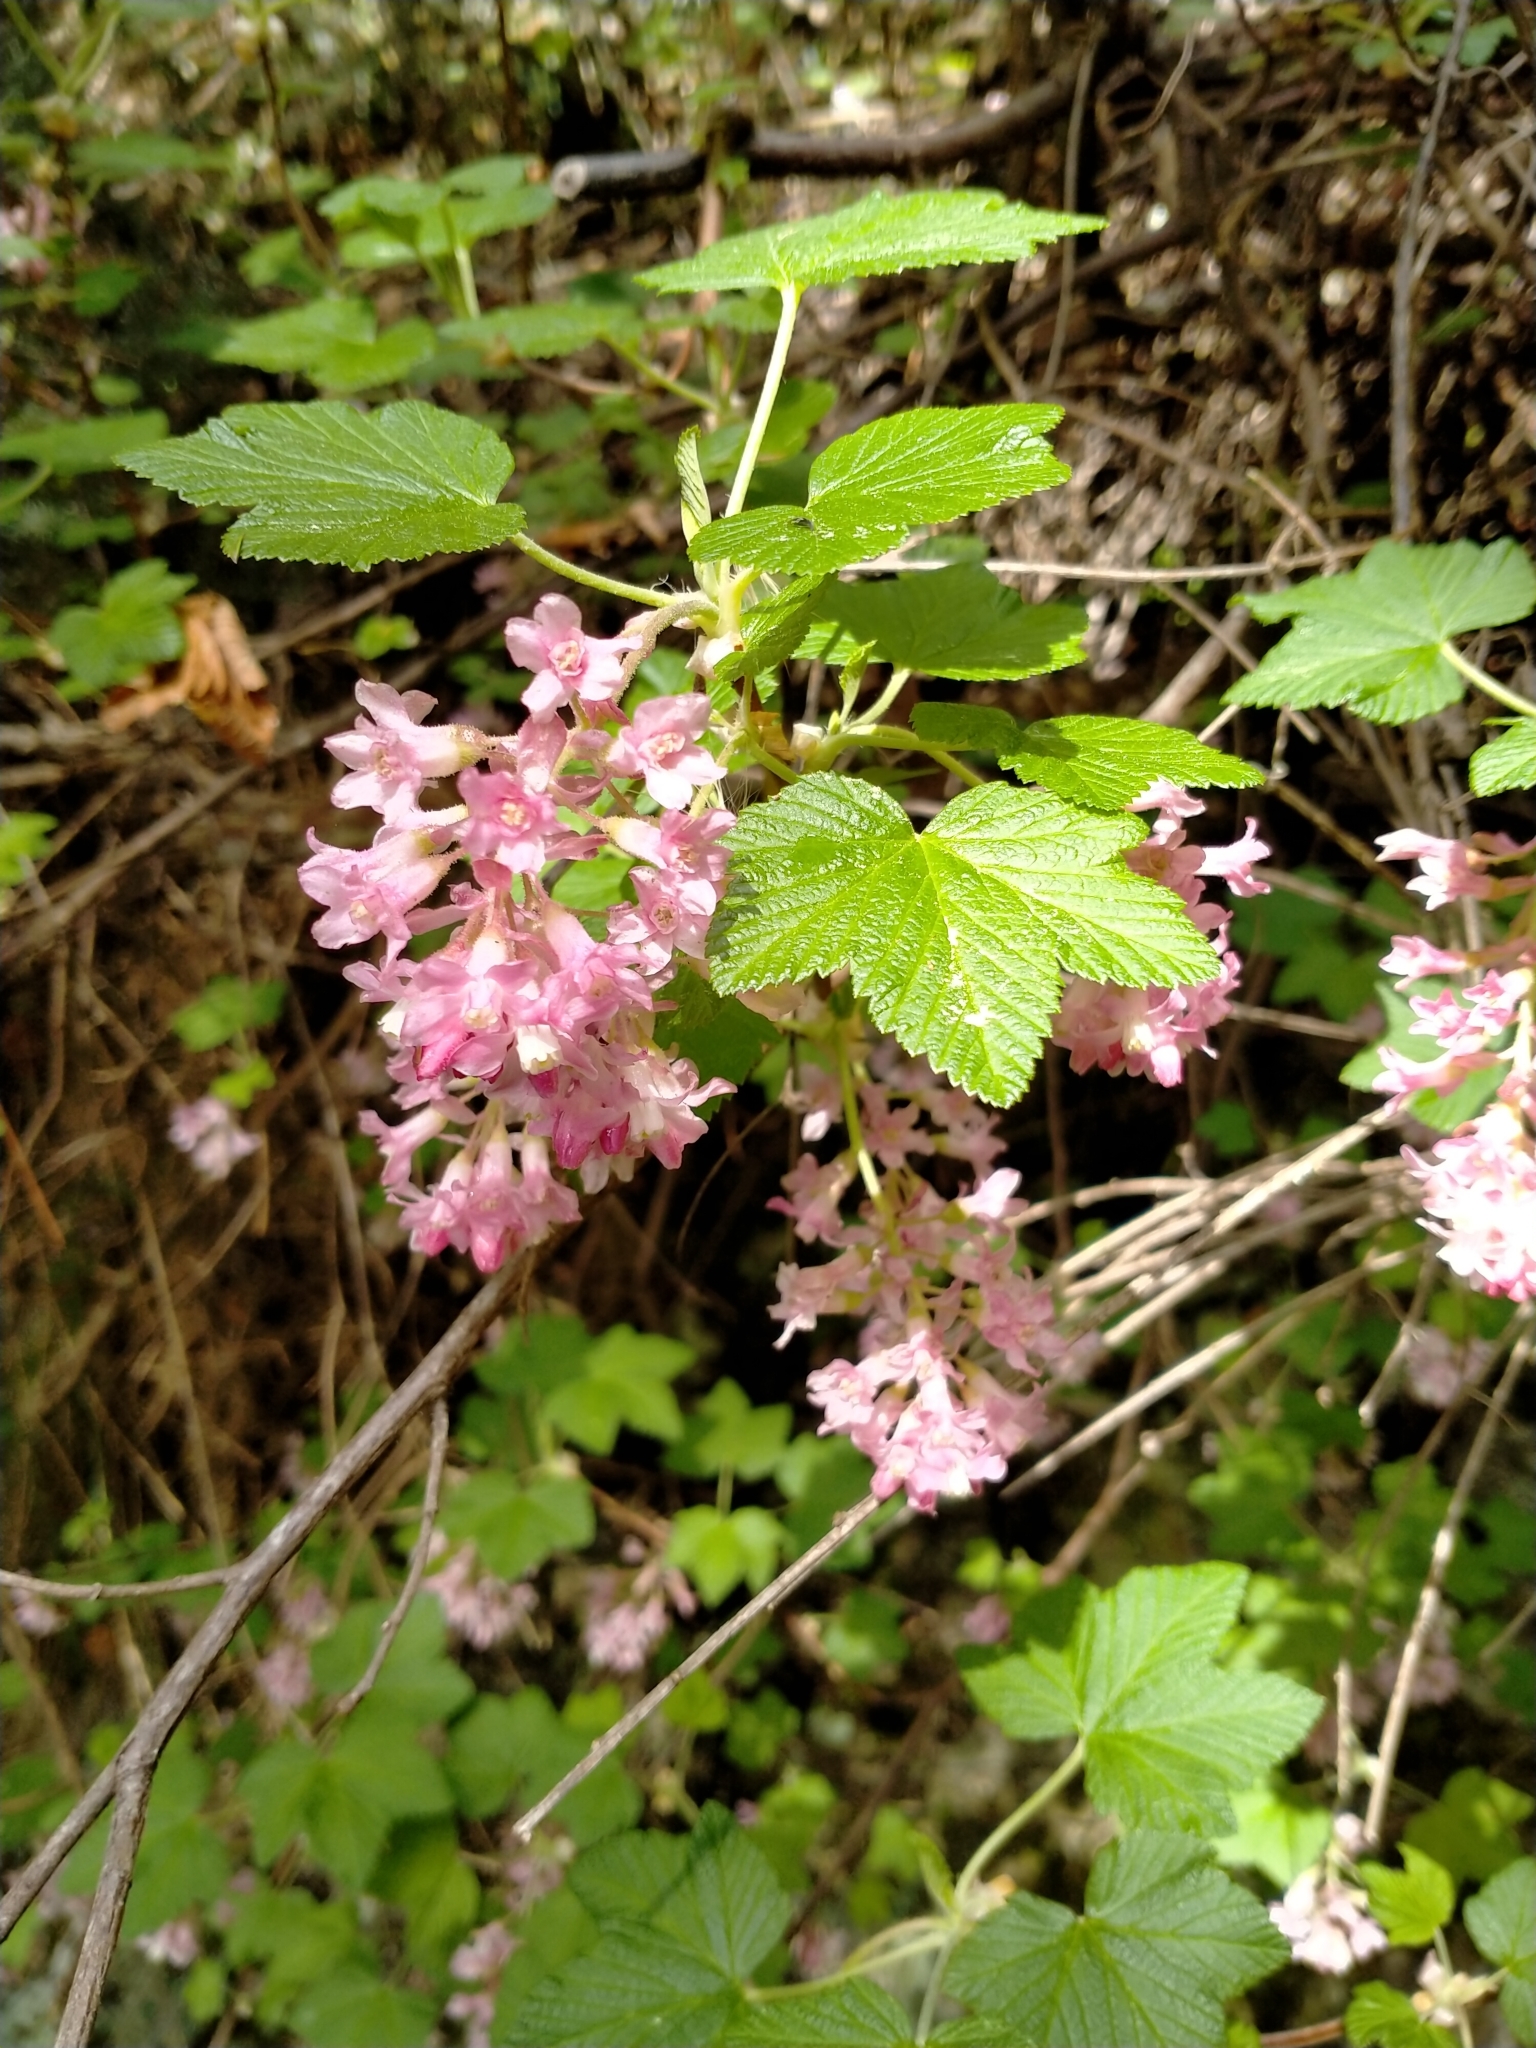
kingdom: Plantae
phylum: Tracheophyta
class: Magnoliopsida
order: Saxifragales
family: Grossulariaceae
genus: Ribes
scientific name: Ribes sanguineum
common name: Flowering currant
